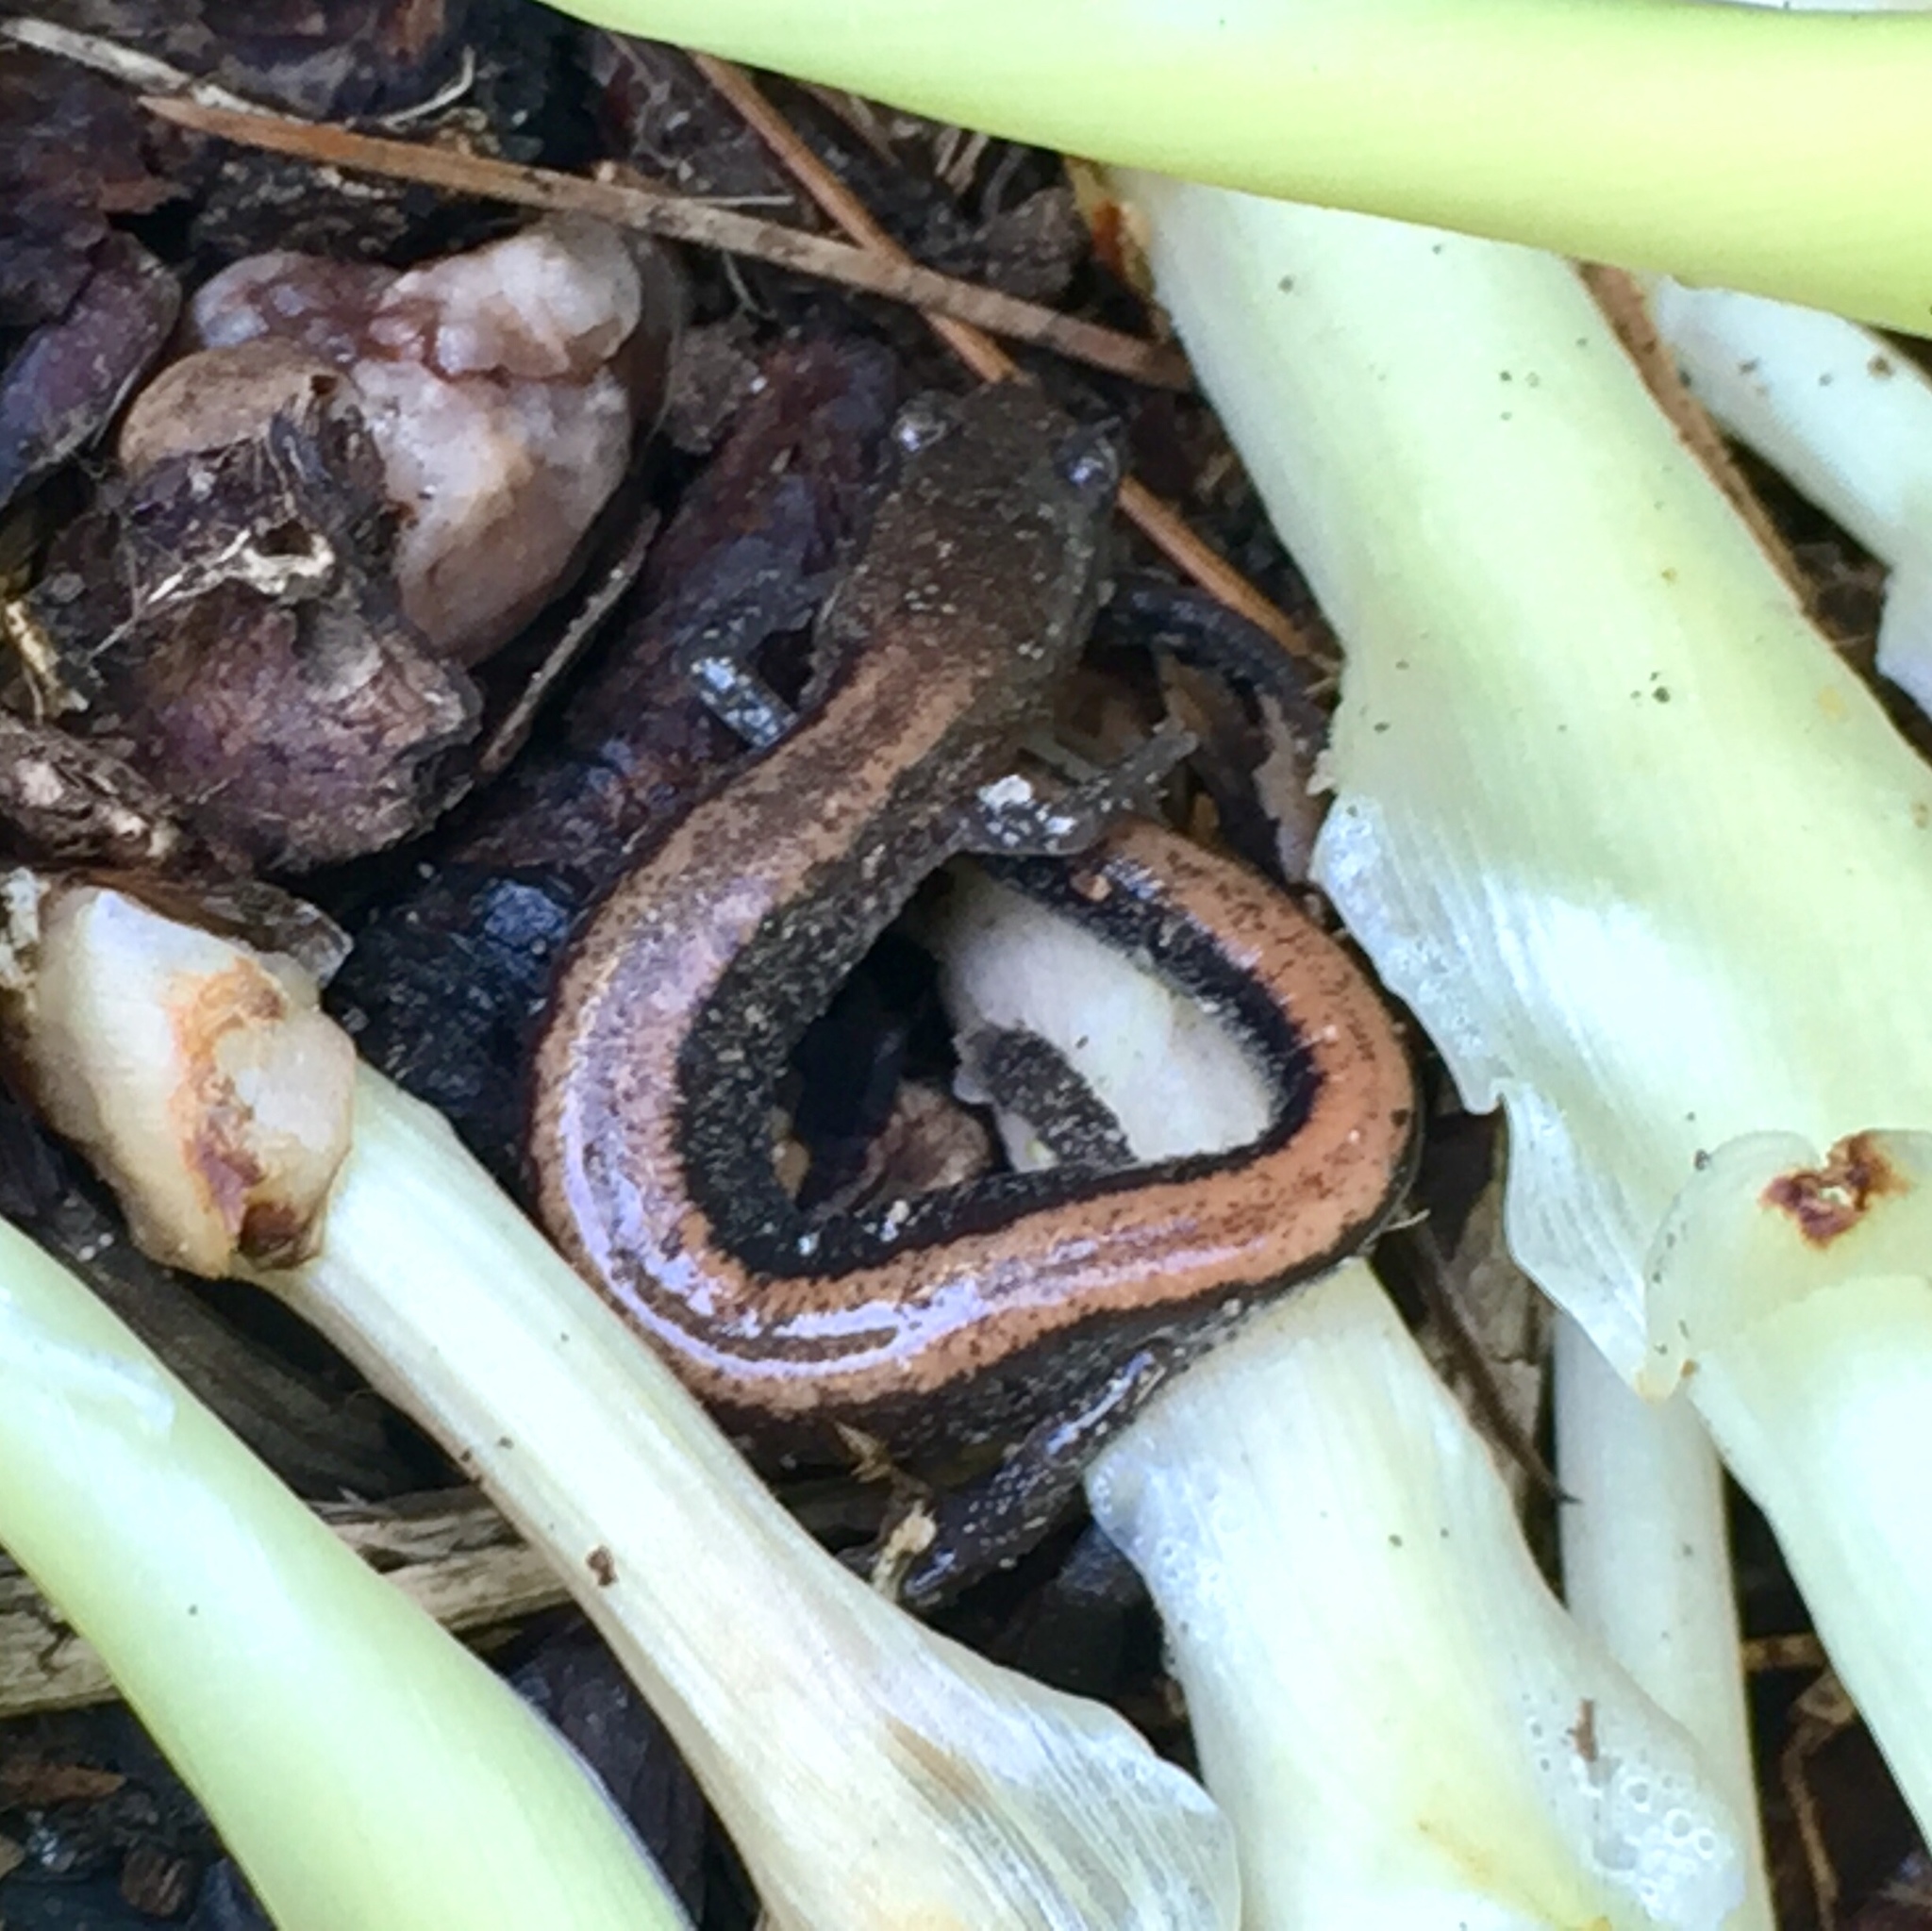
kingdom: Animalia
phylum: Chordata
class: Amphibia
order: Caudata
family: Plethodontidae
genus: Plethodon
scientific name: Plethodon cinereus
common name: Redback salamander
